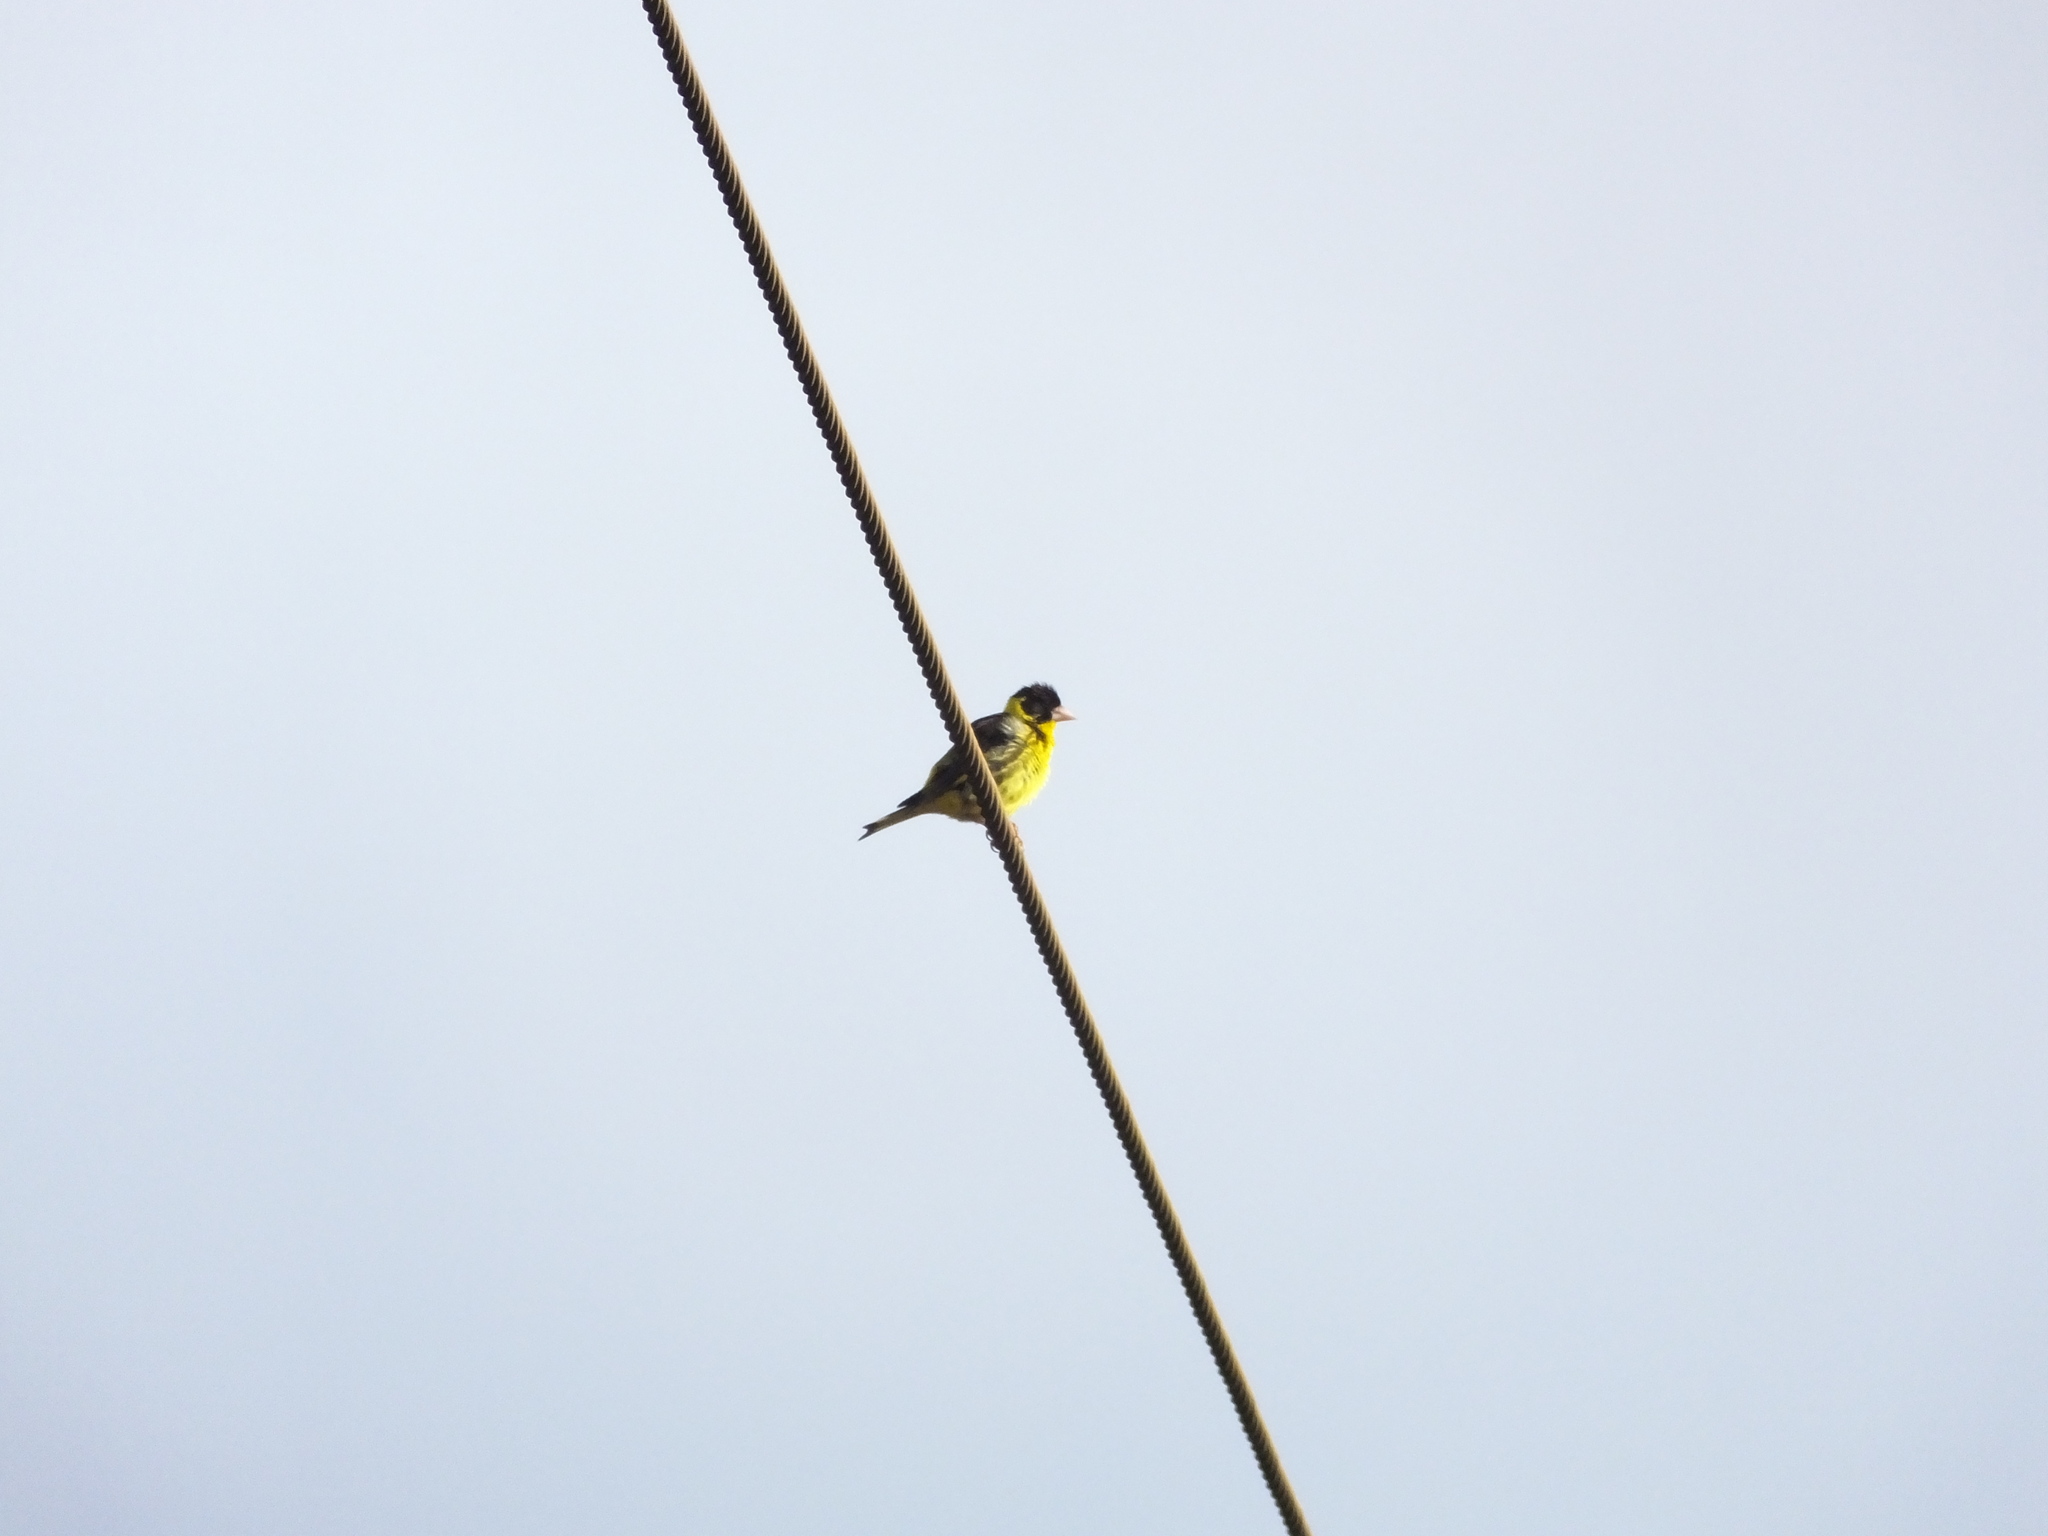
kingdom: Animalia
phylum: Chordata
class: Aves
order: Passeriformes
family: Fringillidae
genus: Chloris
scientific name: Chloris monguilloti
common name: Vietnamese greenfinch
